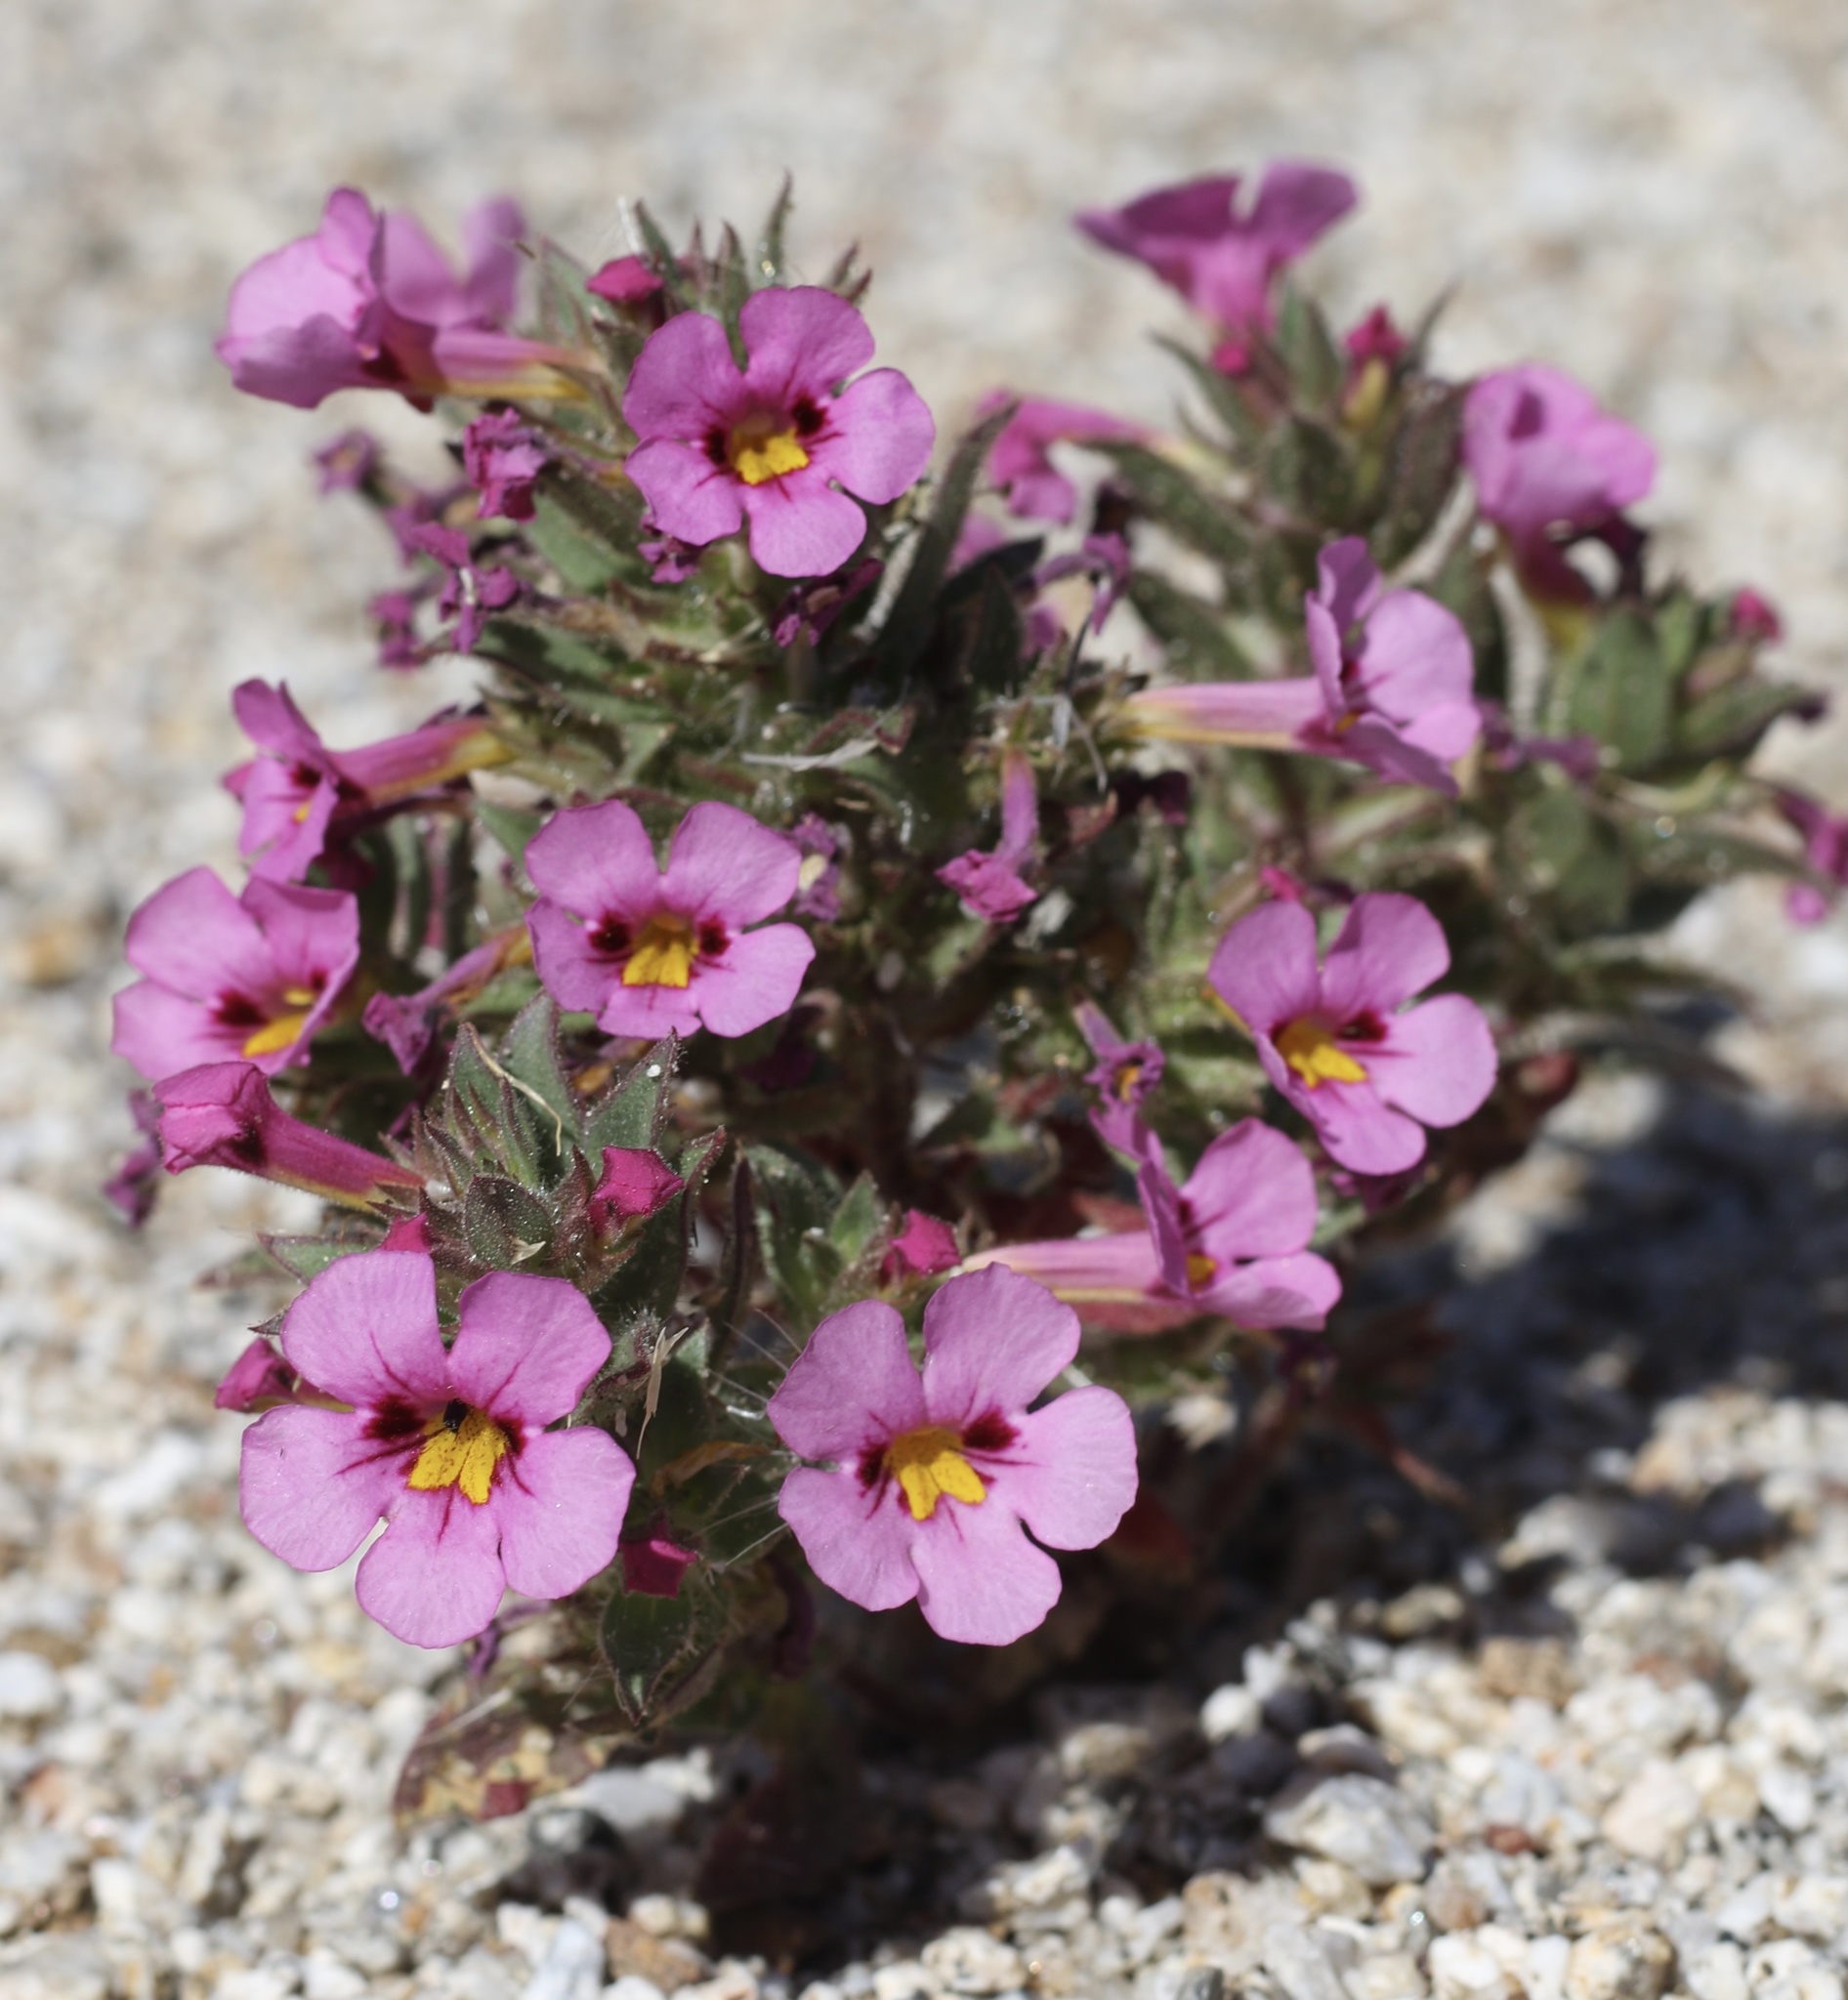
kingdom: Plantae
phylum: Tracheophyta
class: Magnoliopsida
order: Lamiales
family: Phrymaceae
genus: Diplacus
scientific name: Diplacus bigelovii
